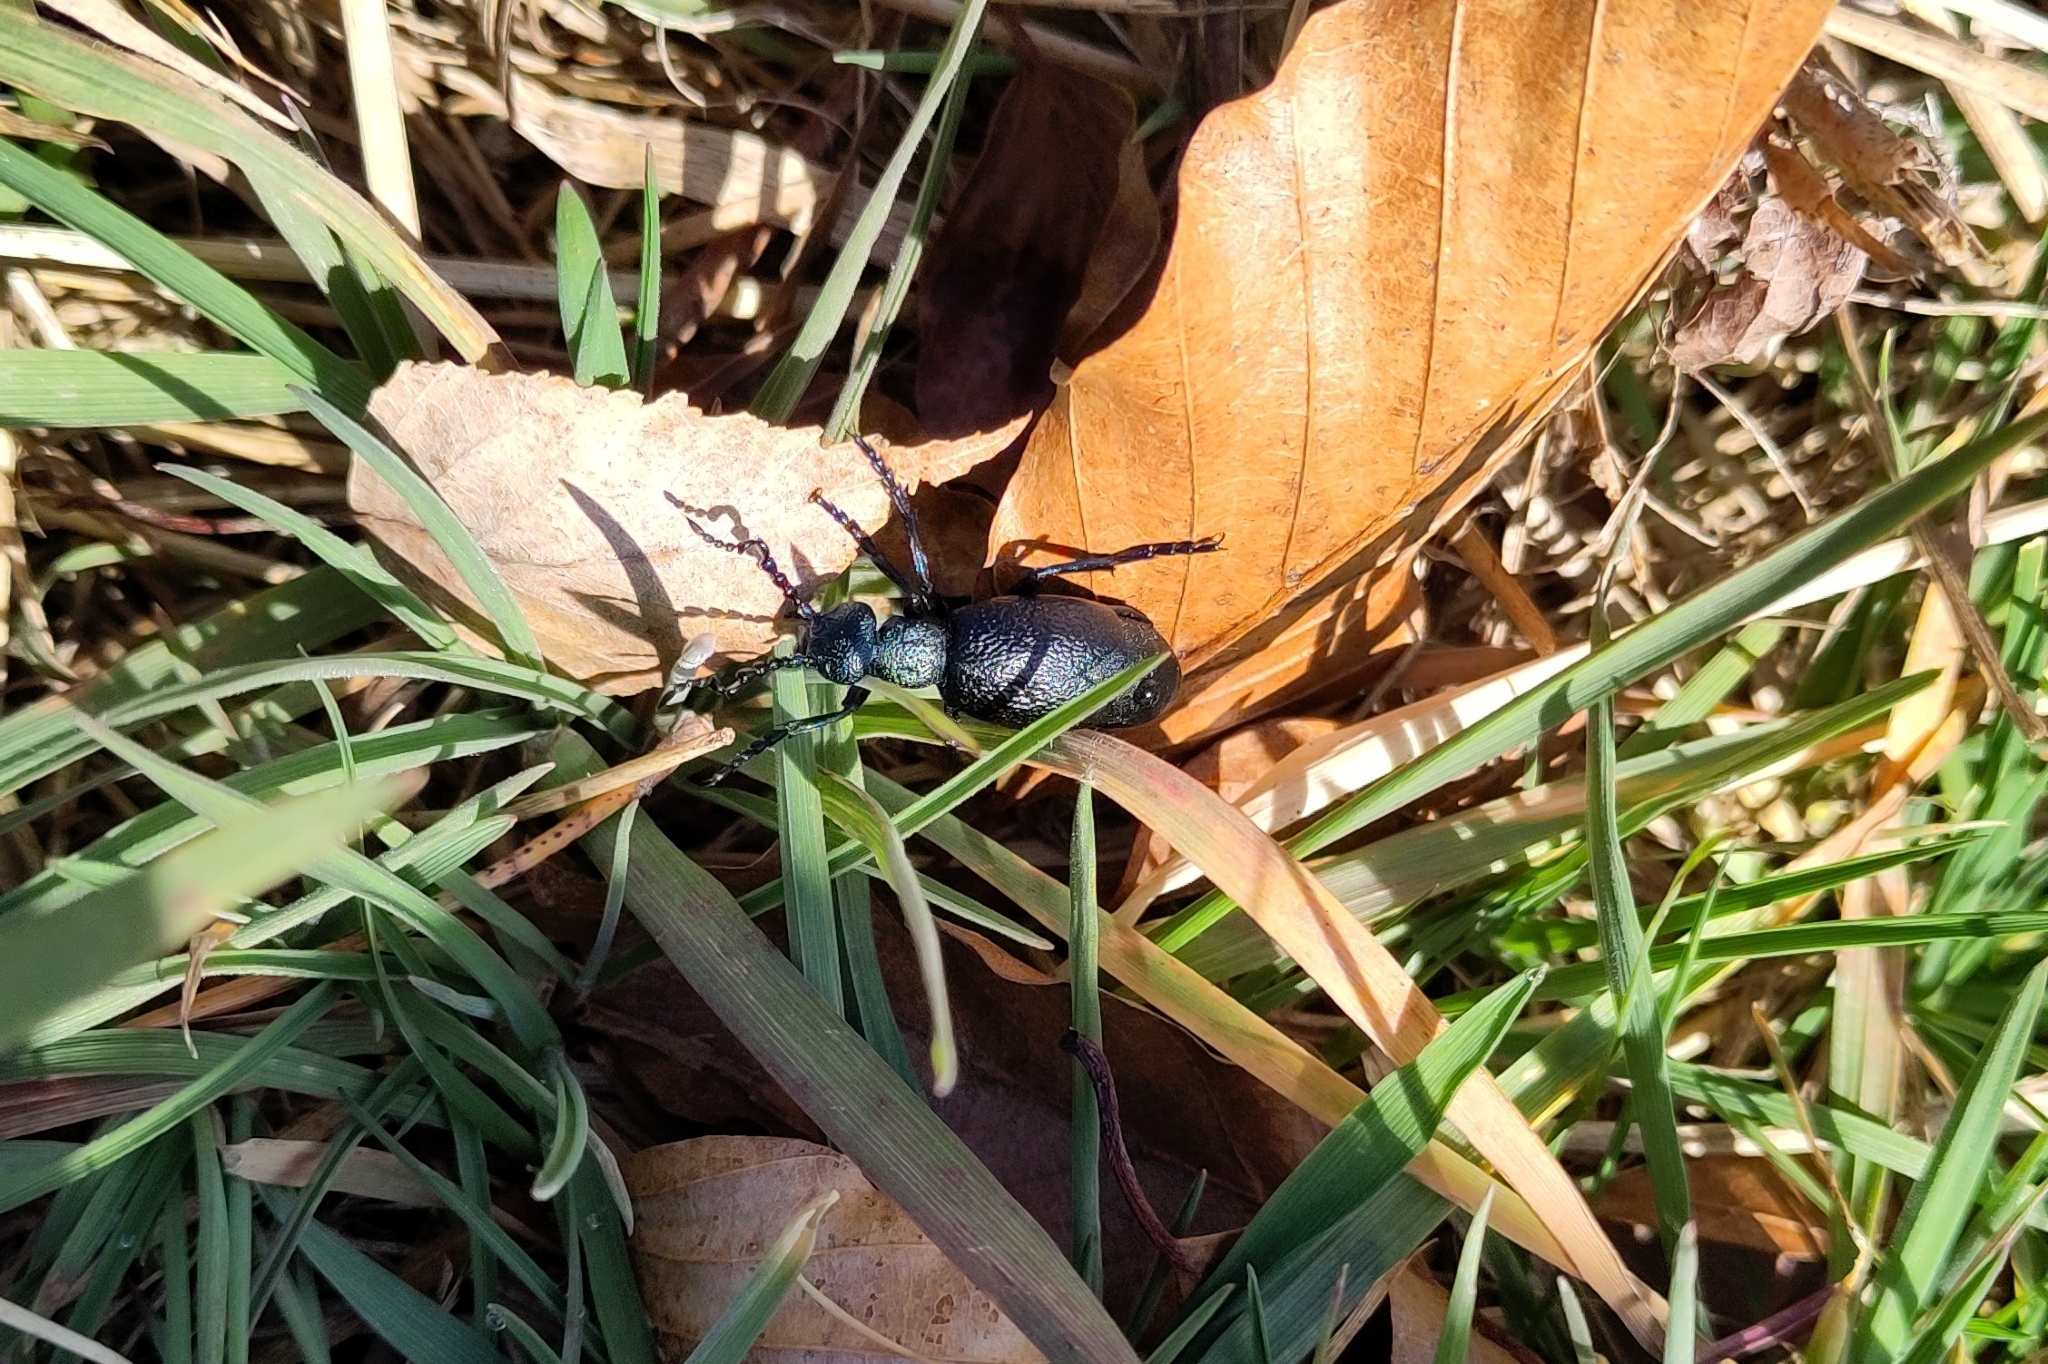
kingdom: Animalia
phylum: Arthropoda
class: Insecta
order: Coleoptera
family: Meloidae
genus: Meloe
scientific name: Meloe proscarabaeus
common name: Black oil-beetle
